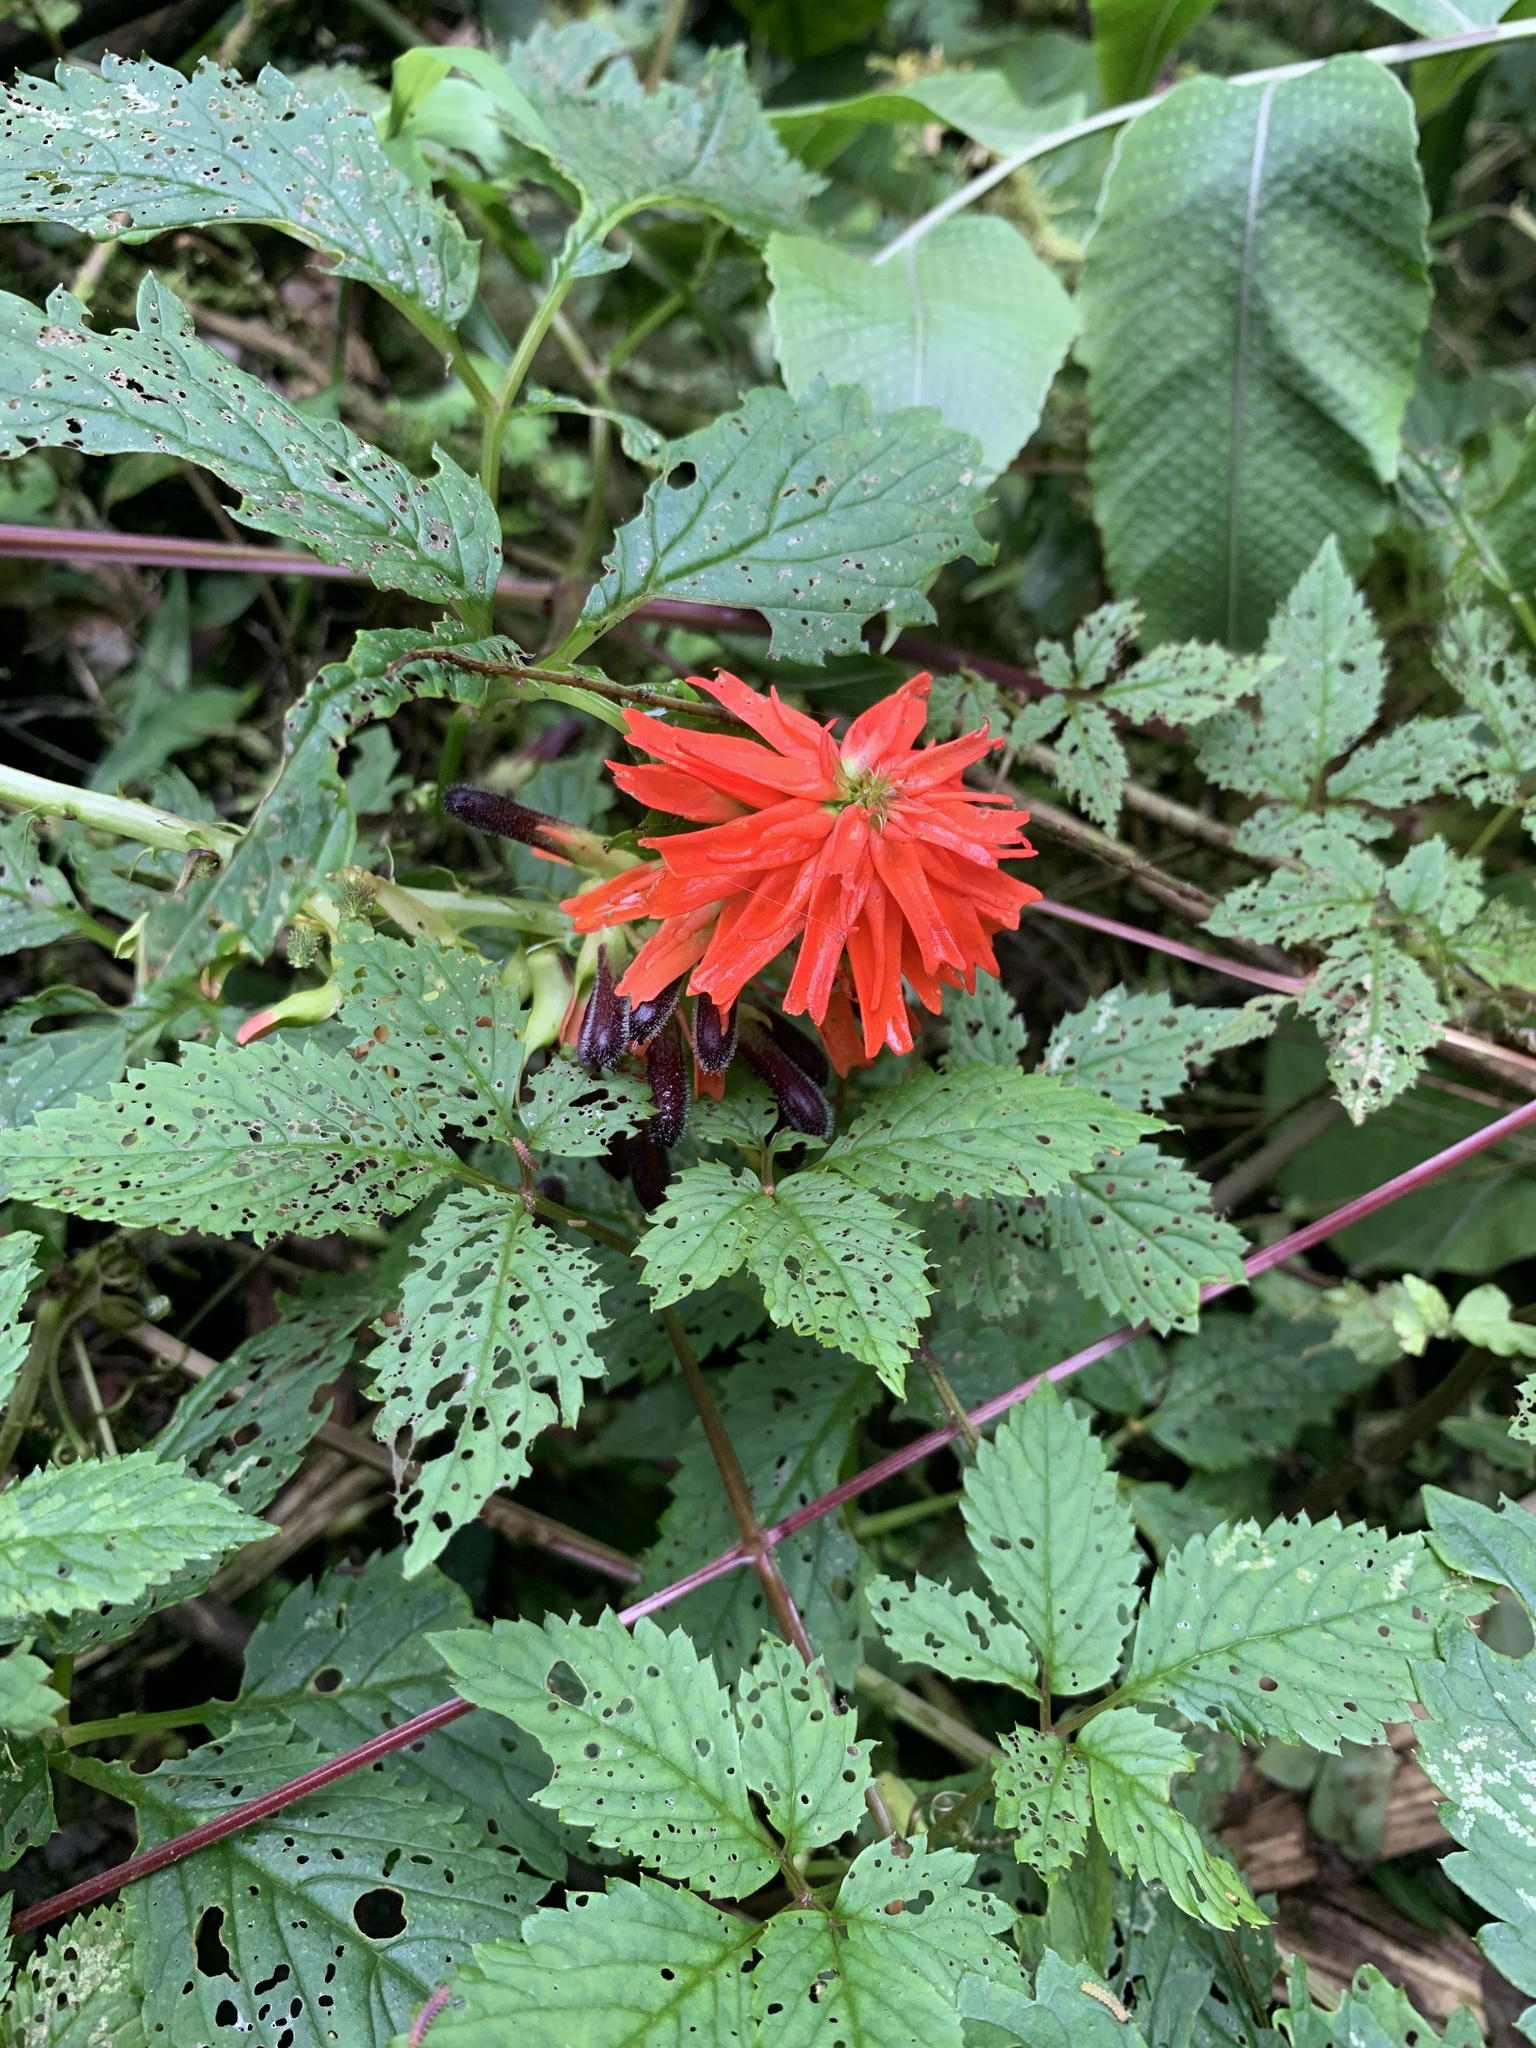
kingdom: Plantae
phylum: Tracheophyta
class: Magnoliopsida
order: Lamiales
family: Bignoniaceae
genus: Tourrettia
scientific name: Tourrettia lappacea
